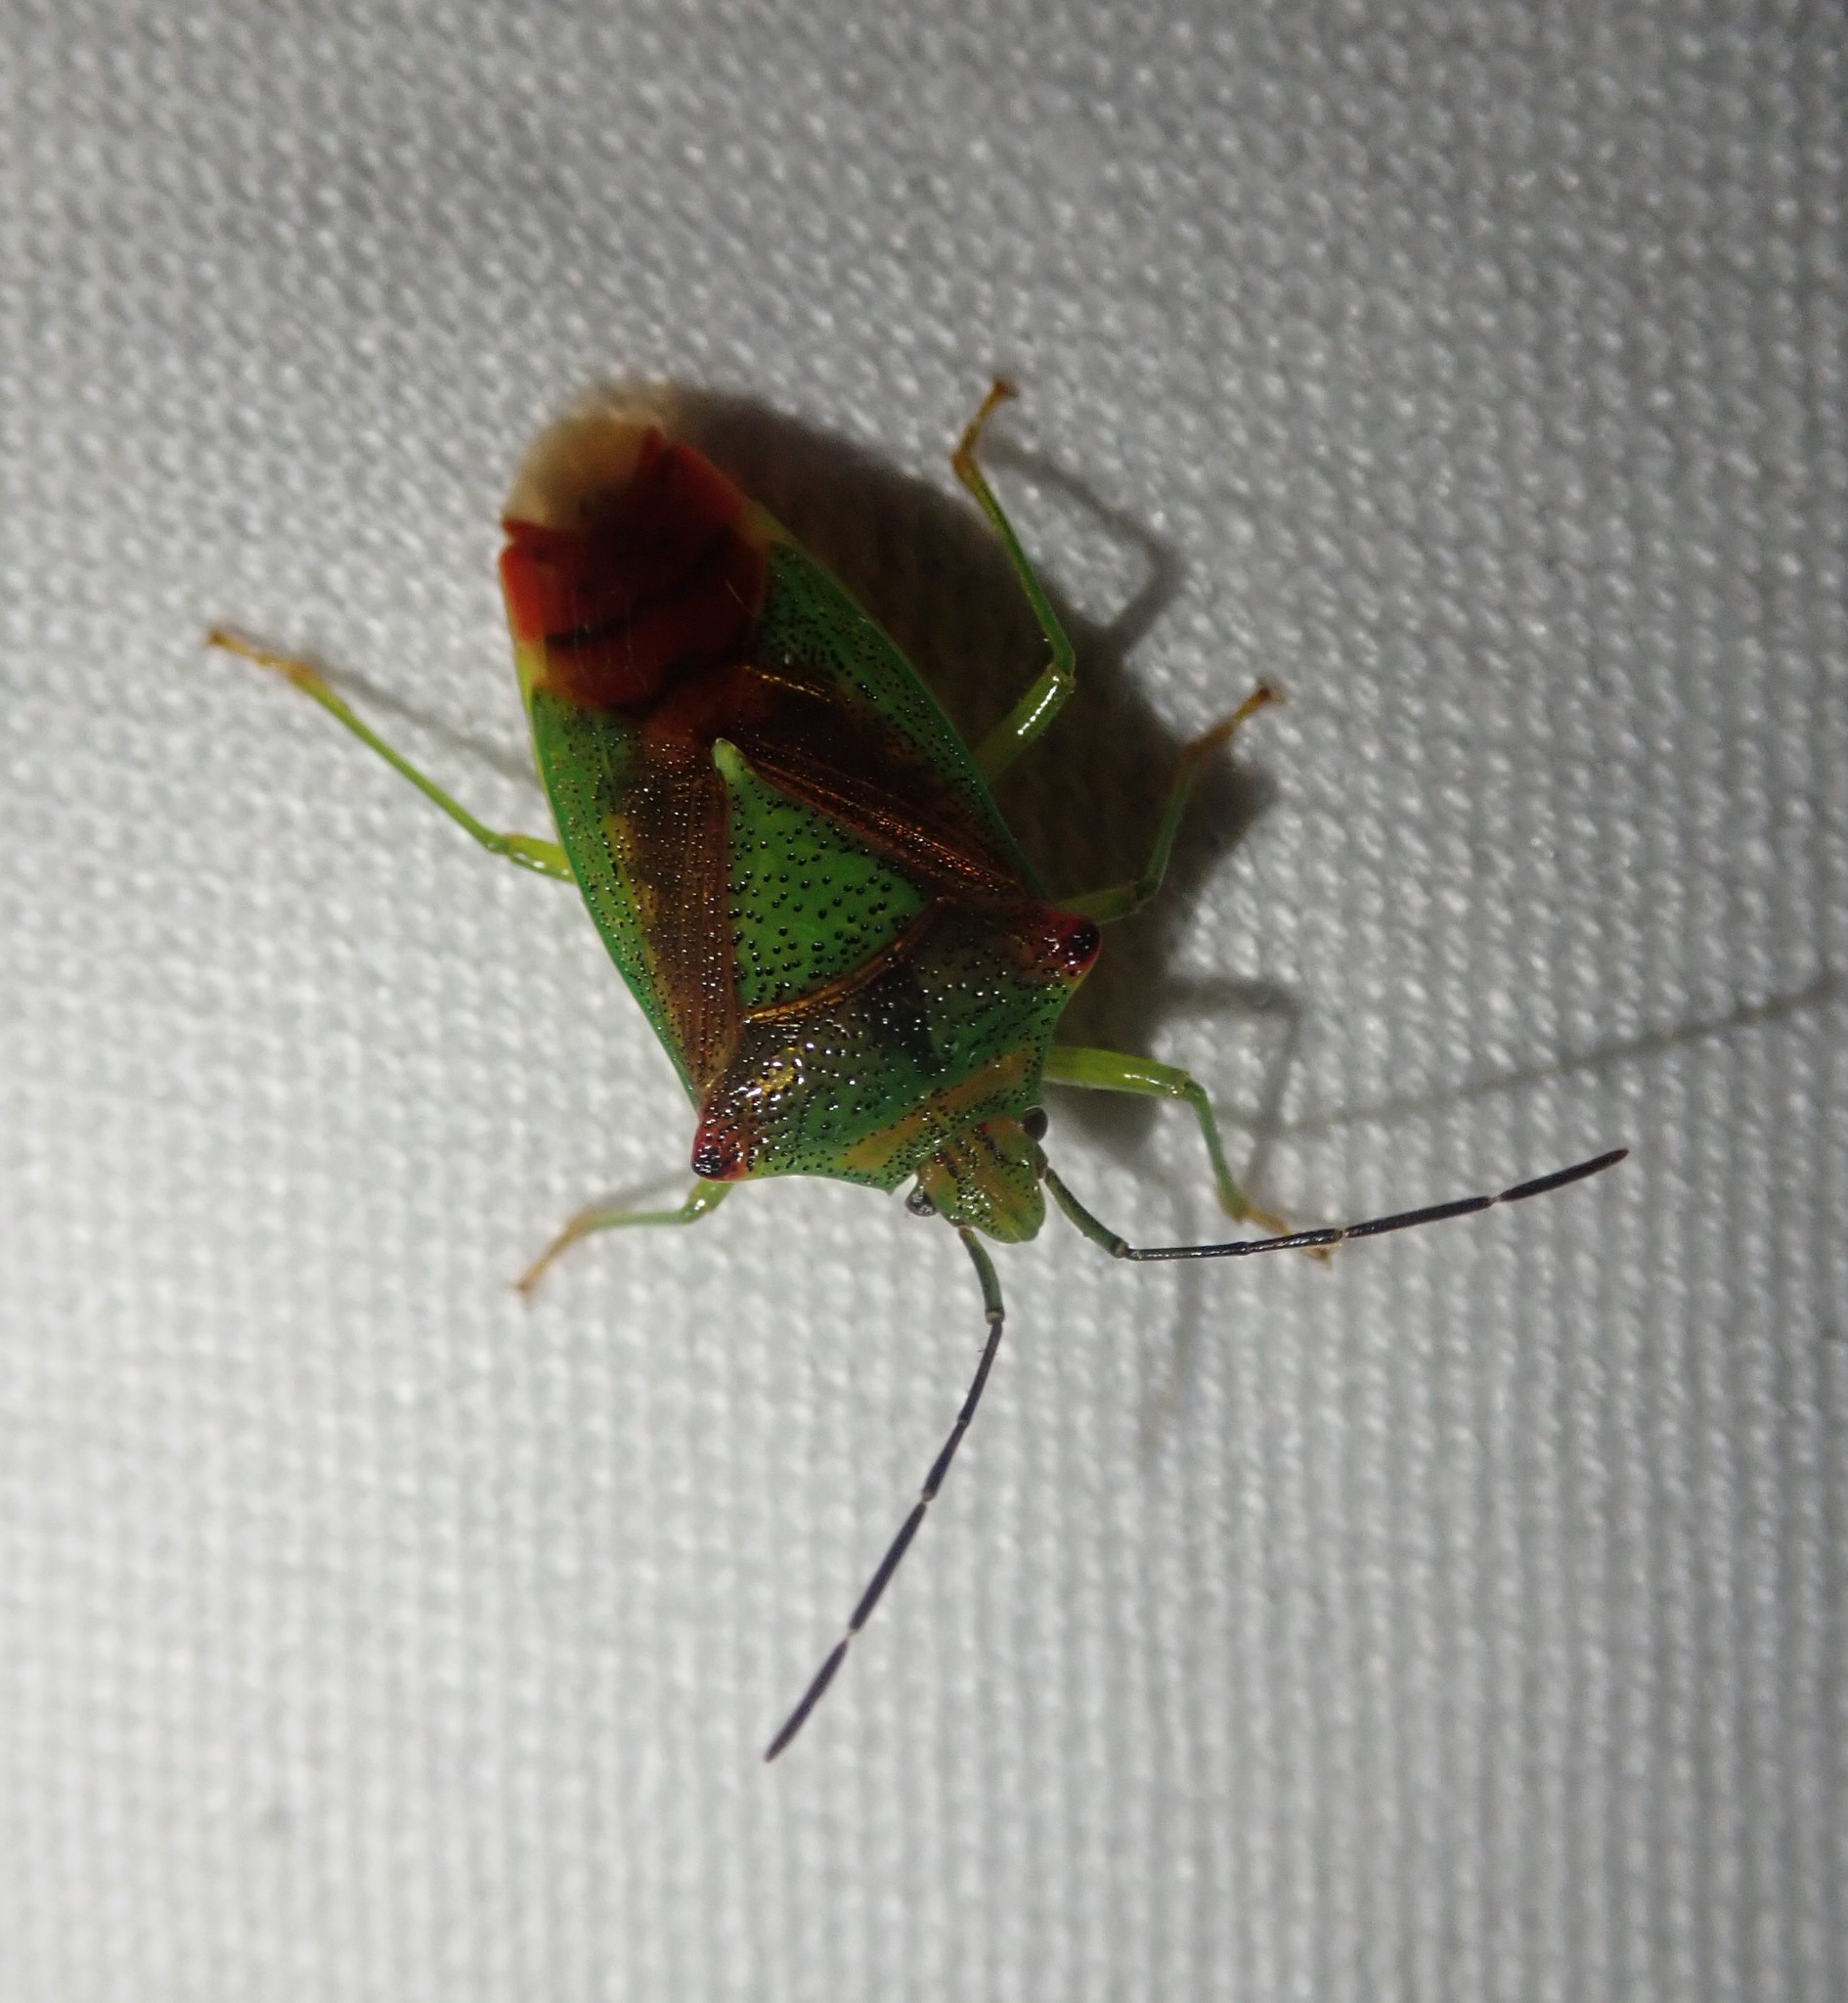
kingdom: Animalia
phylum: Arthropoda
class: Insecta
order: Hemiptera
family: Acanthosomatidae
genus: Acanthosoma
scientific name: Acanthosoma haemorrhoidale
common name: Hawthorn shieldbug
